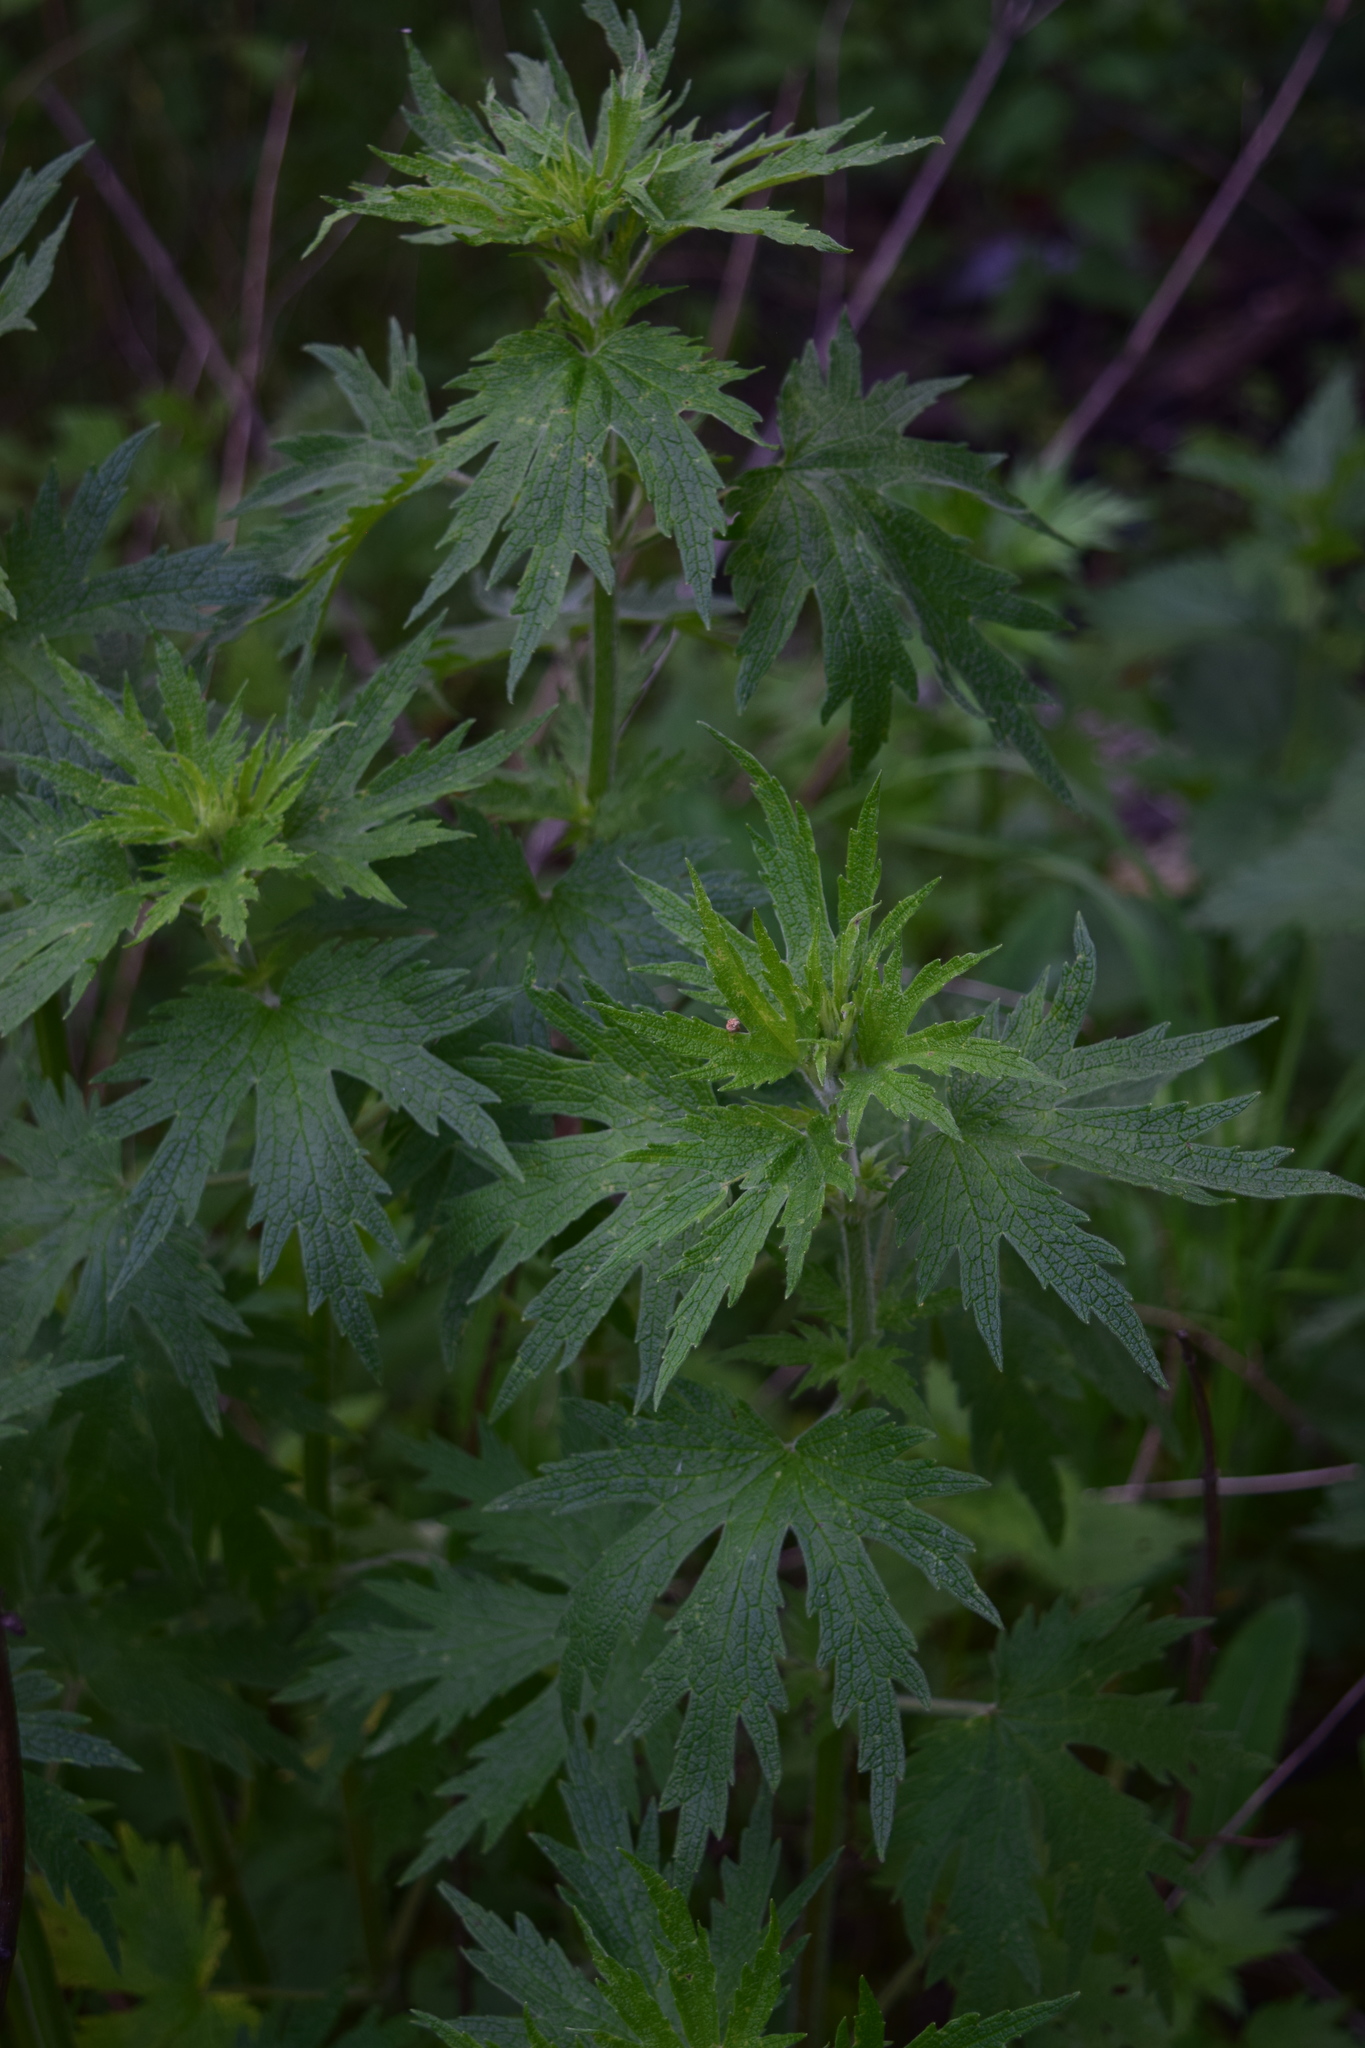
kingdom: Plantae
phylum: Tracheophyta
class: Magnoliopsida
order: Lamiales
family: Lamiaceae
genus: Leonurus
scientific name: Leonurus quinquelobatus
